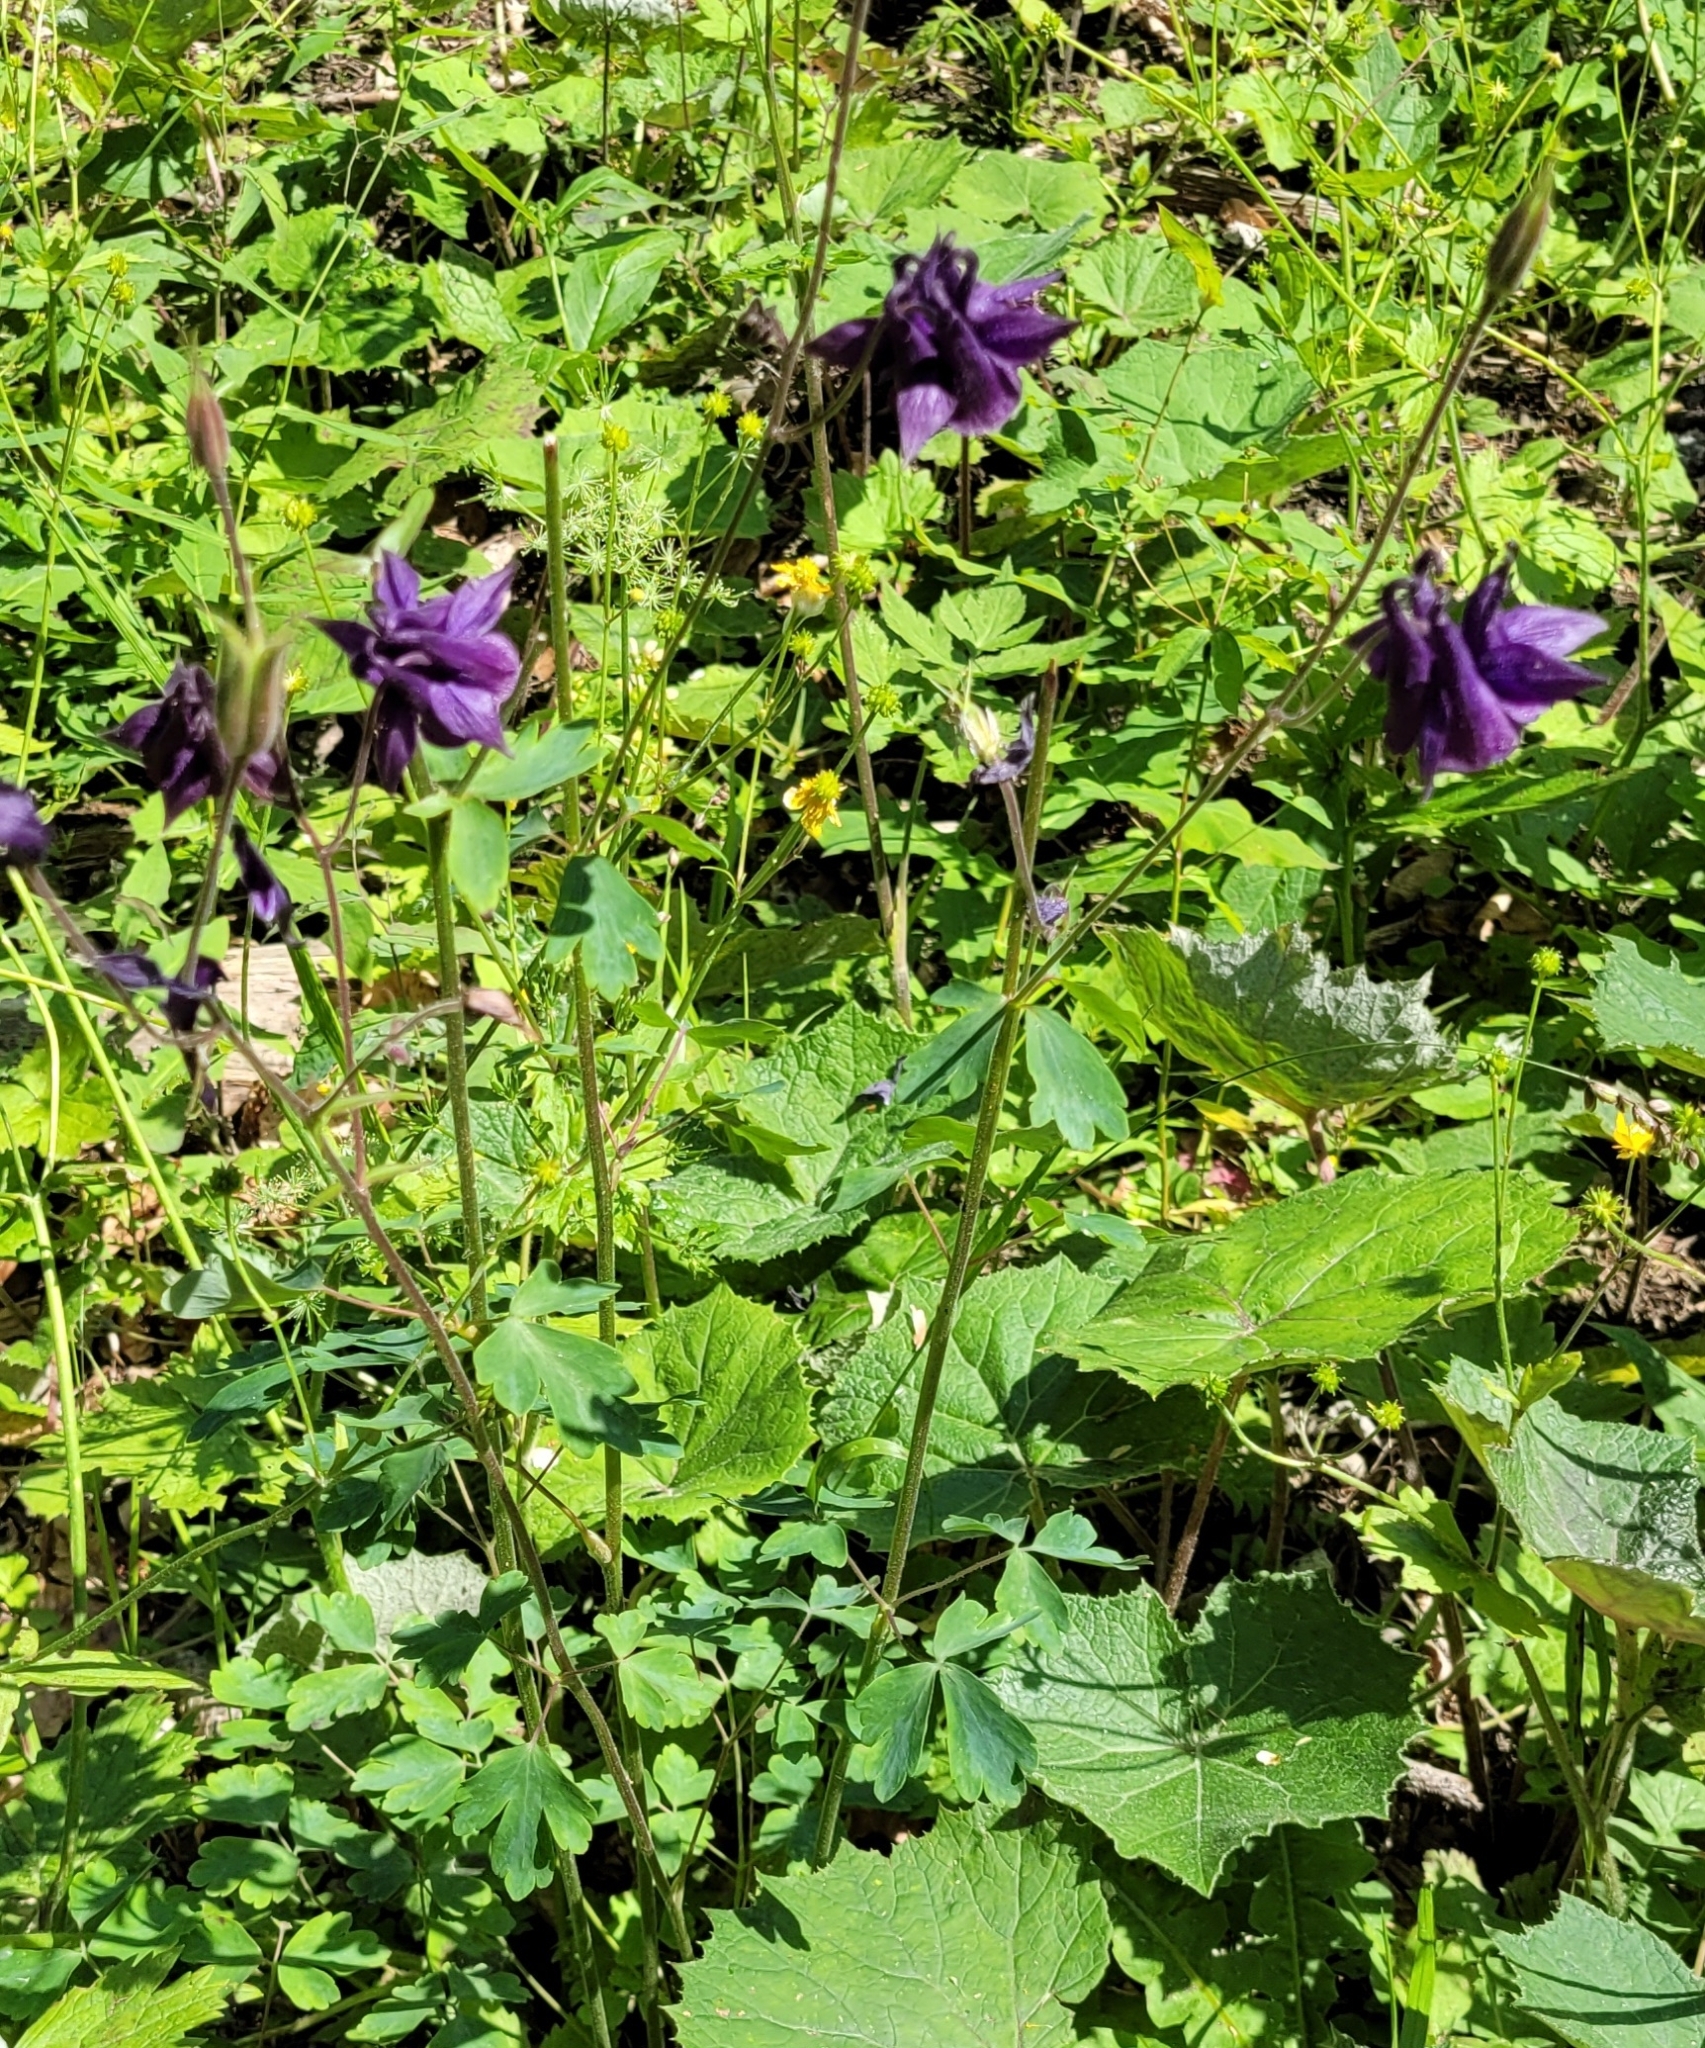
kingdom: Plantae
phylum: Tracheophyta
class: Magnoliopsida
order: Ranunculales
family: Ranunculaceae
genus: Aquilegia
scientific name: Aquilegia atrata
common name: Dark columbine
